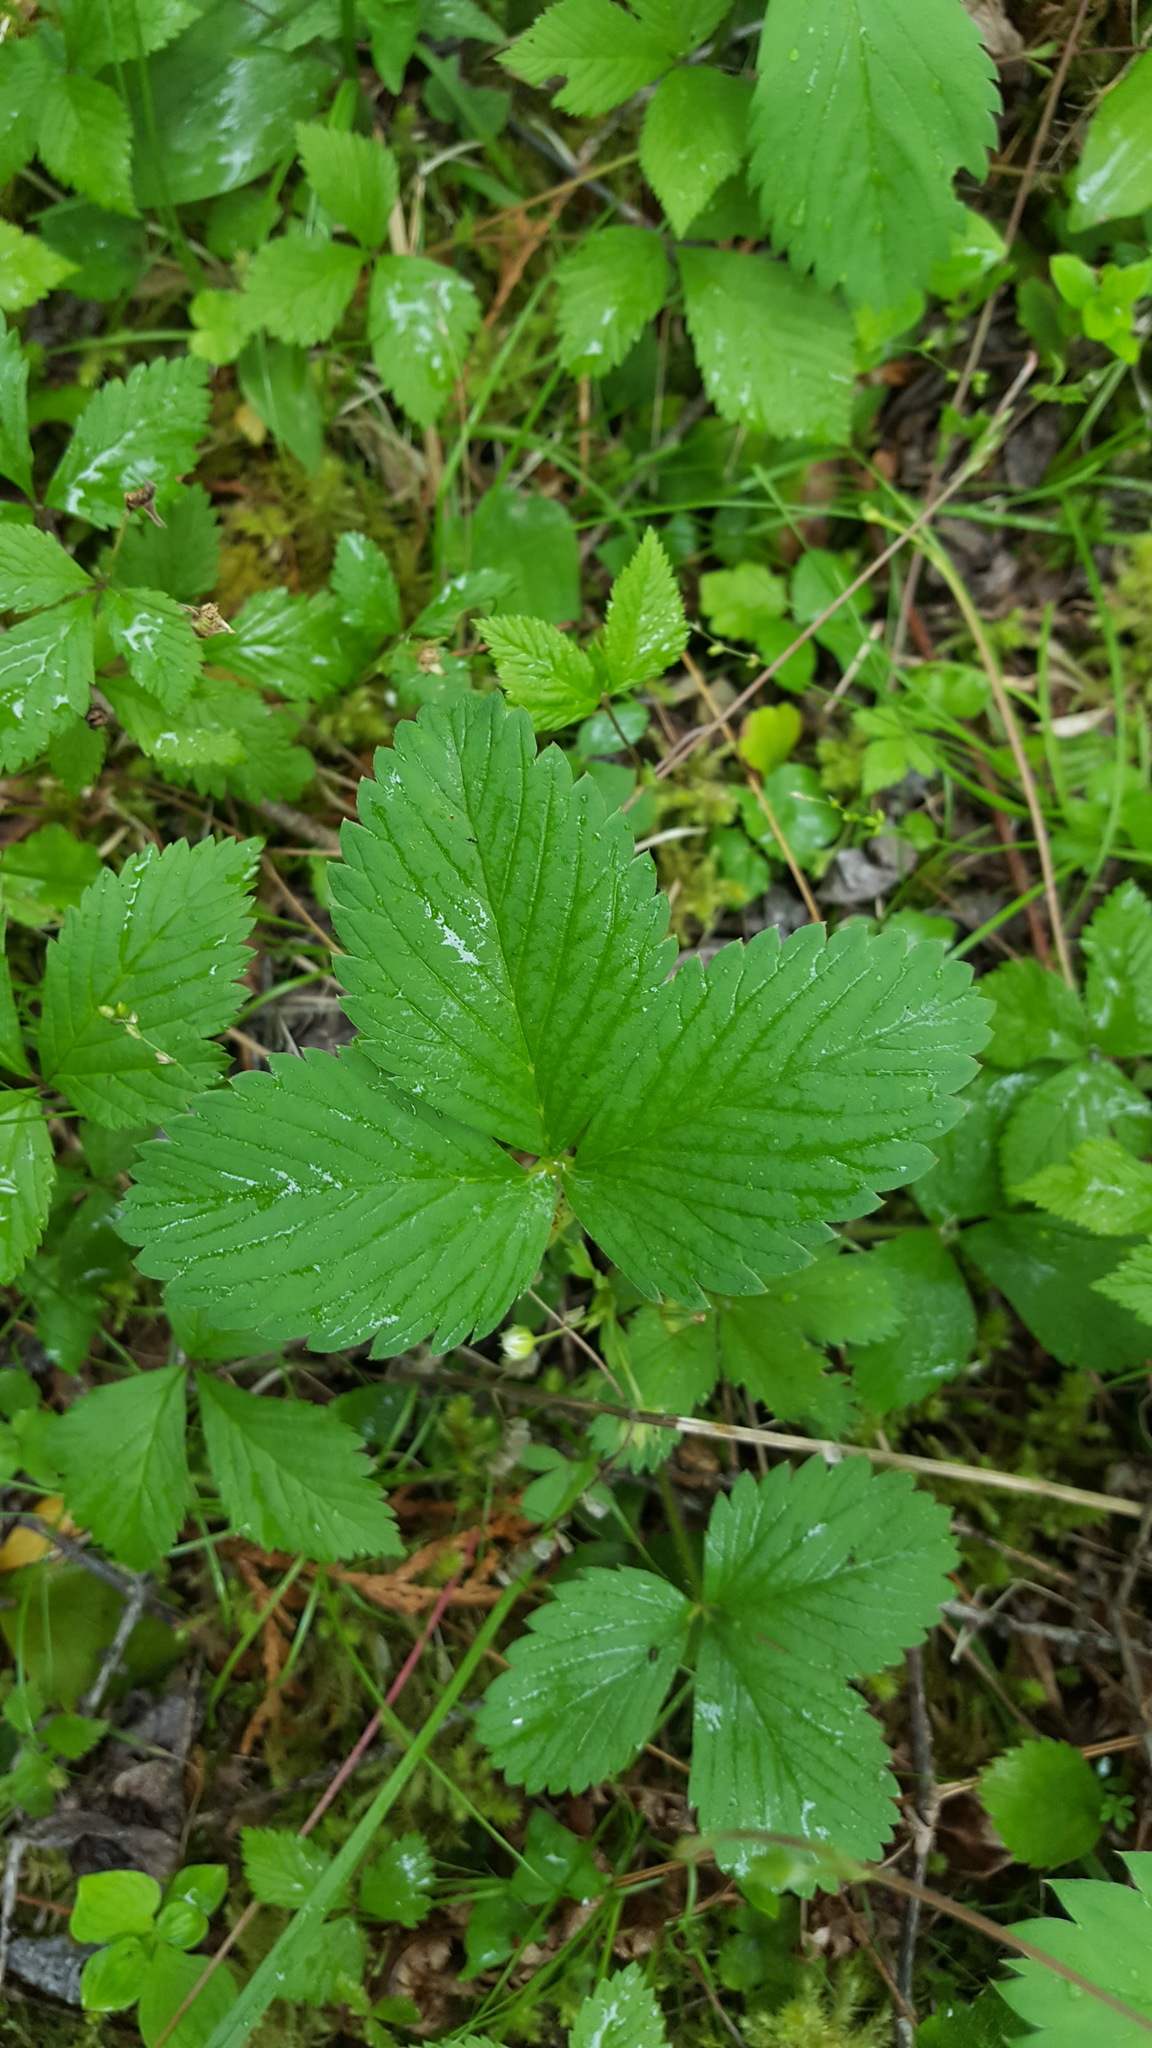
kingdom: Plantae
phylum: Tracheophyta
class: Magnoliopsida
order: Rosales
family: Rosaceae
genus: Fragaria
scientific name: Fragaria vesca
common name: Wild strawberry
